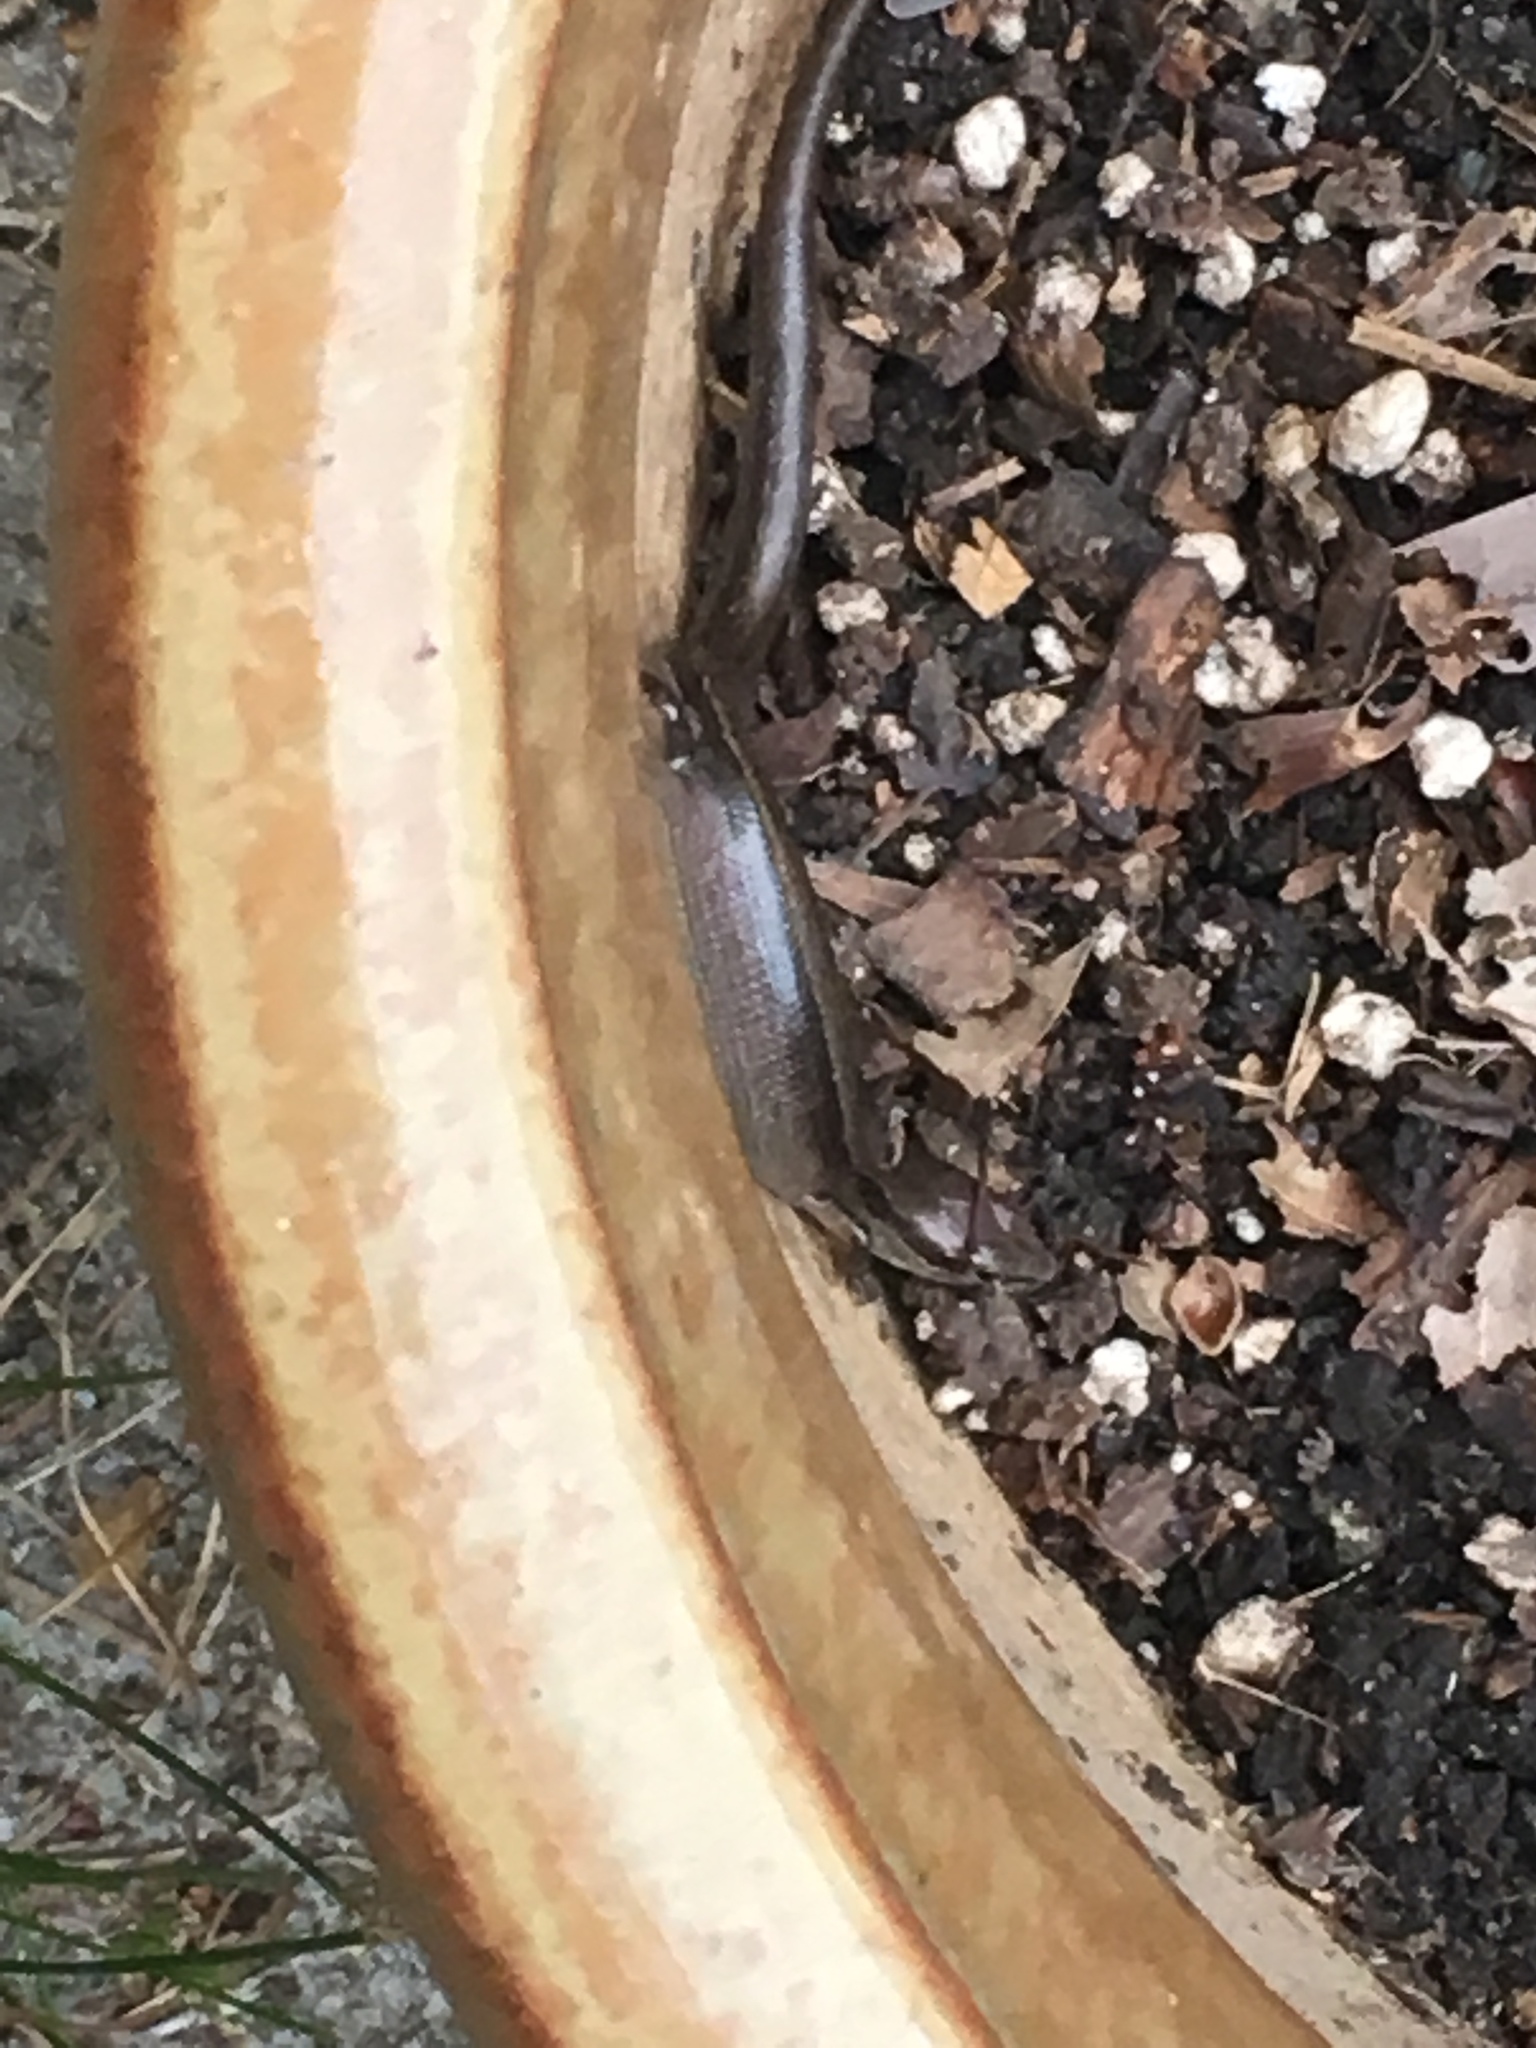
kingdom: Animalia
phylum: Chordata
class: Squamata
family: Scincidae
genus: Scincella
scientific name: Scincella lateralis
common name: Ground skink
